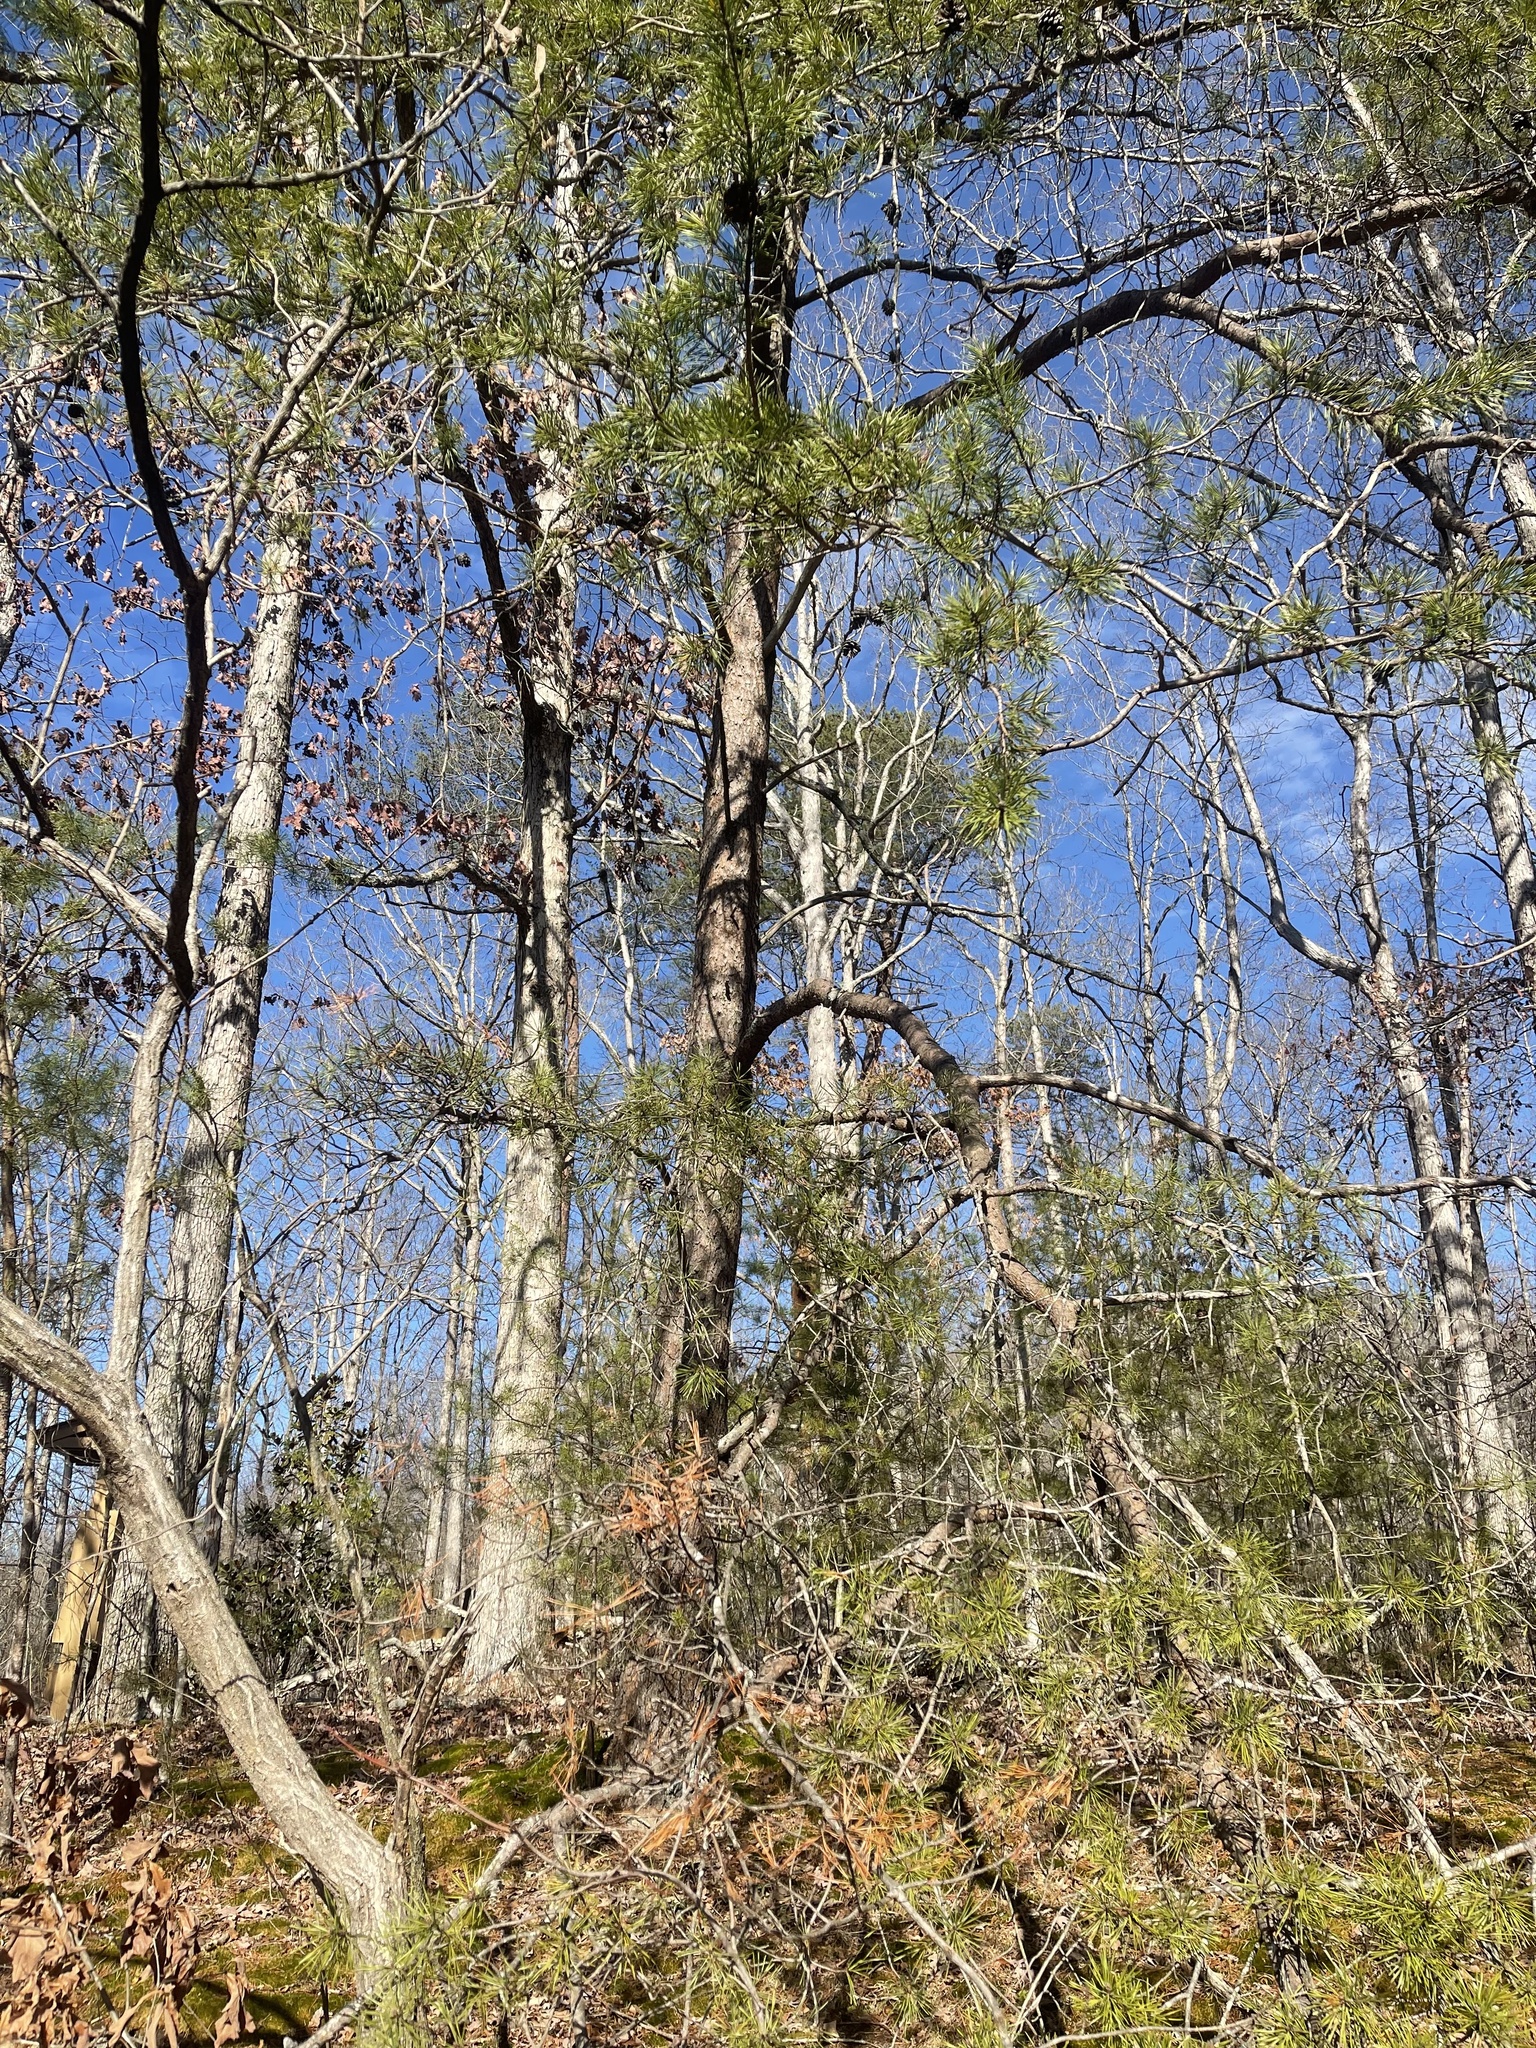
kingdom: Plantae
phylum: Tracheophyta
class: Pinopsida
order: Pinales
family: Pinaceae
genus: Pinus
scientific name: Pinus virginiana
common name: Scrub pine
